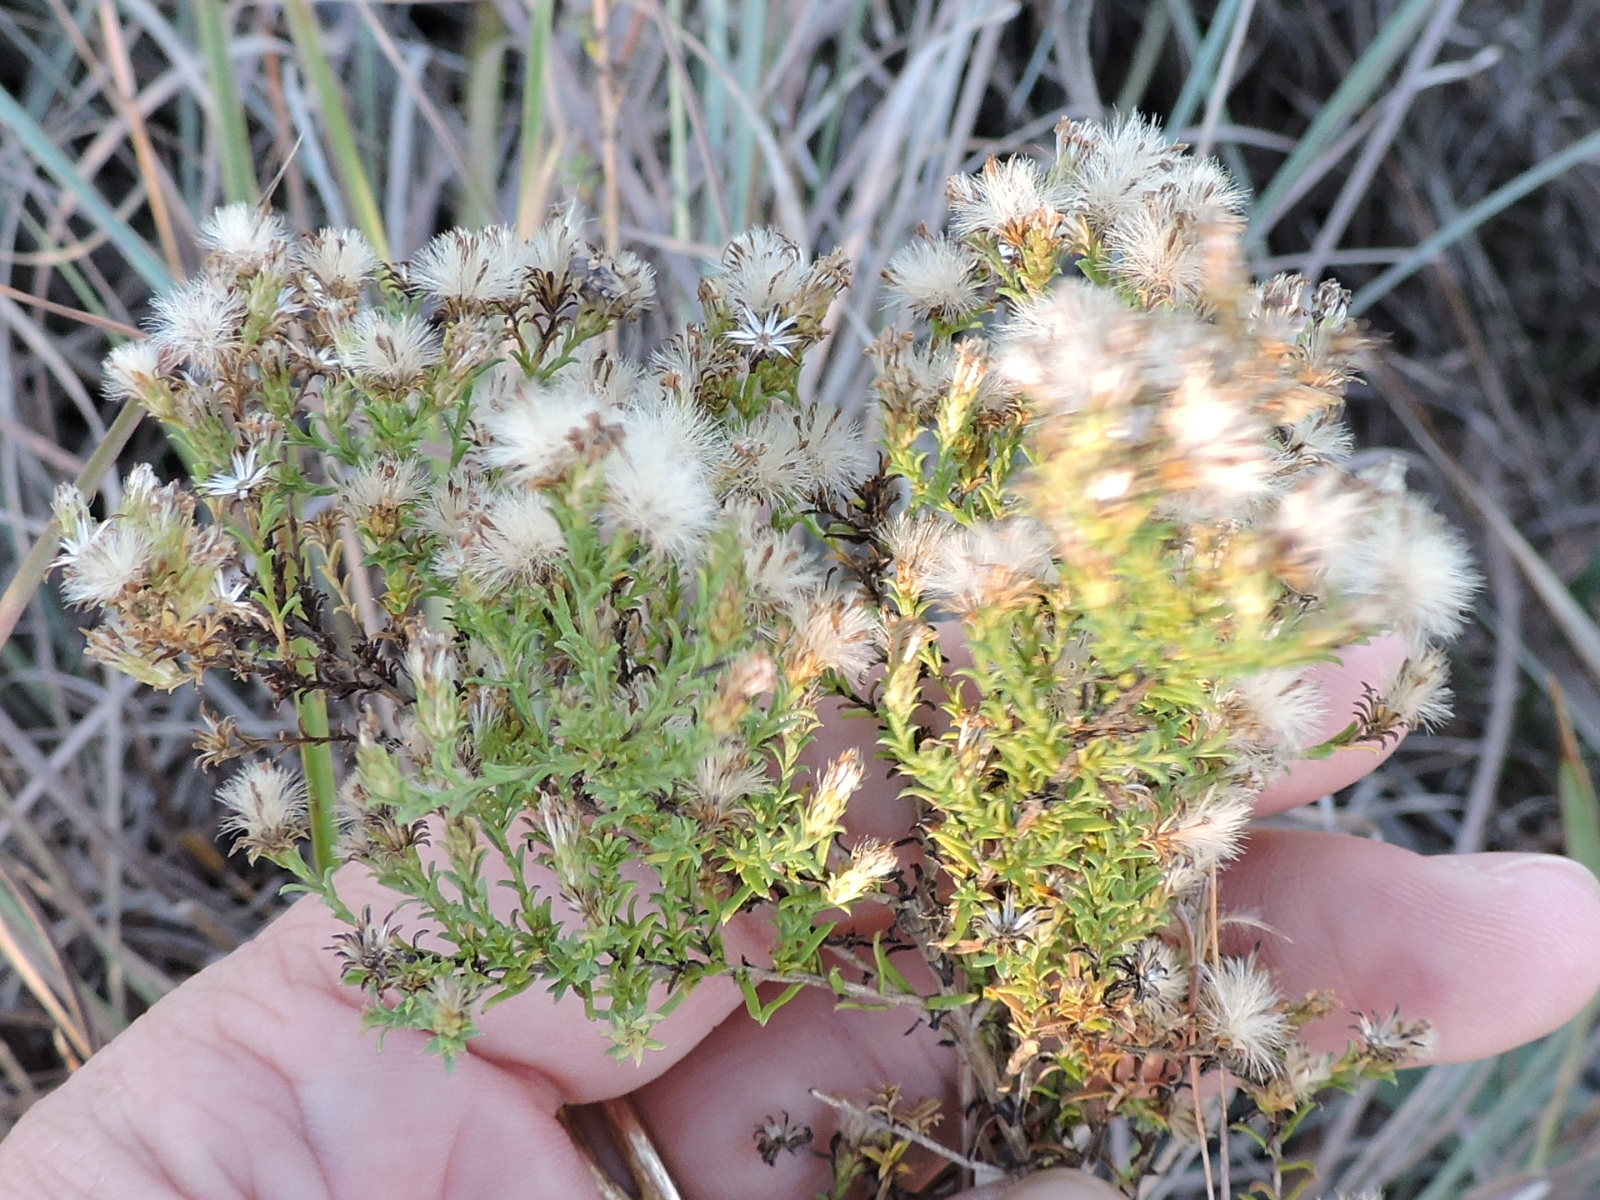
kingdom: Plantae
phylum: Tracheophyta
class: Magnoliopsida
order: Asterales
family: Asteraceae
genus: Symphyotrichum
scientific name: Symphyotrichum ericoides
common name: Heath aster
